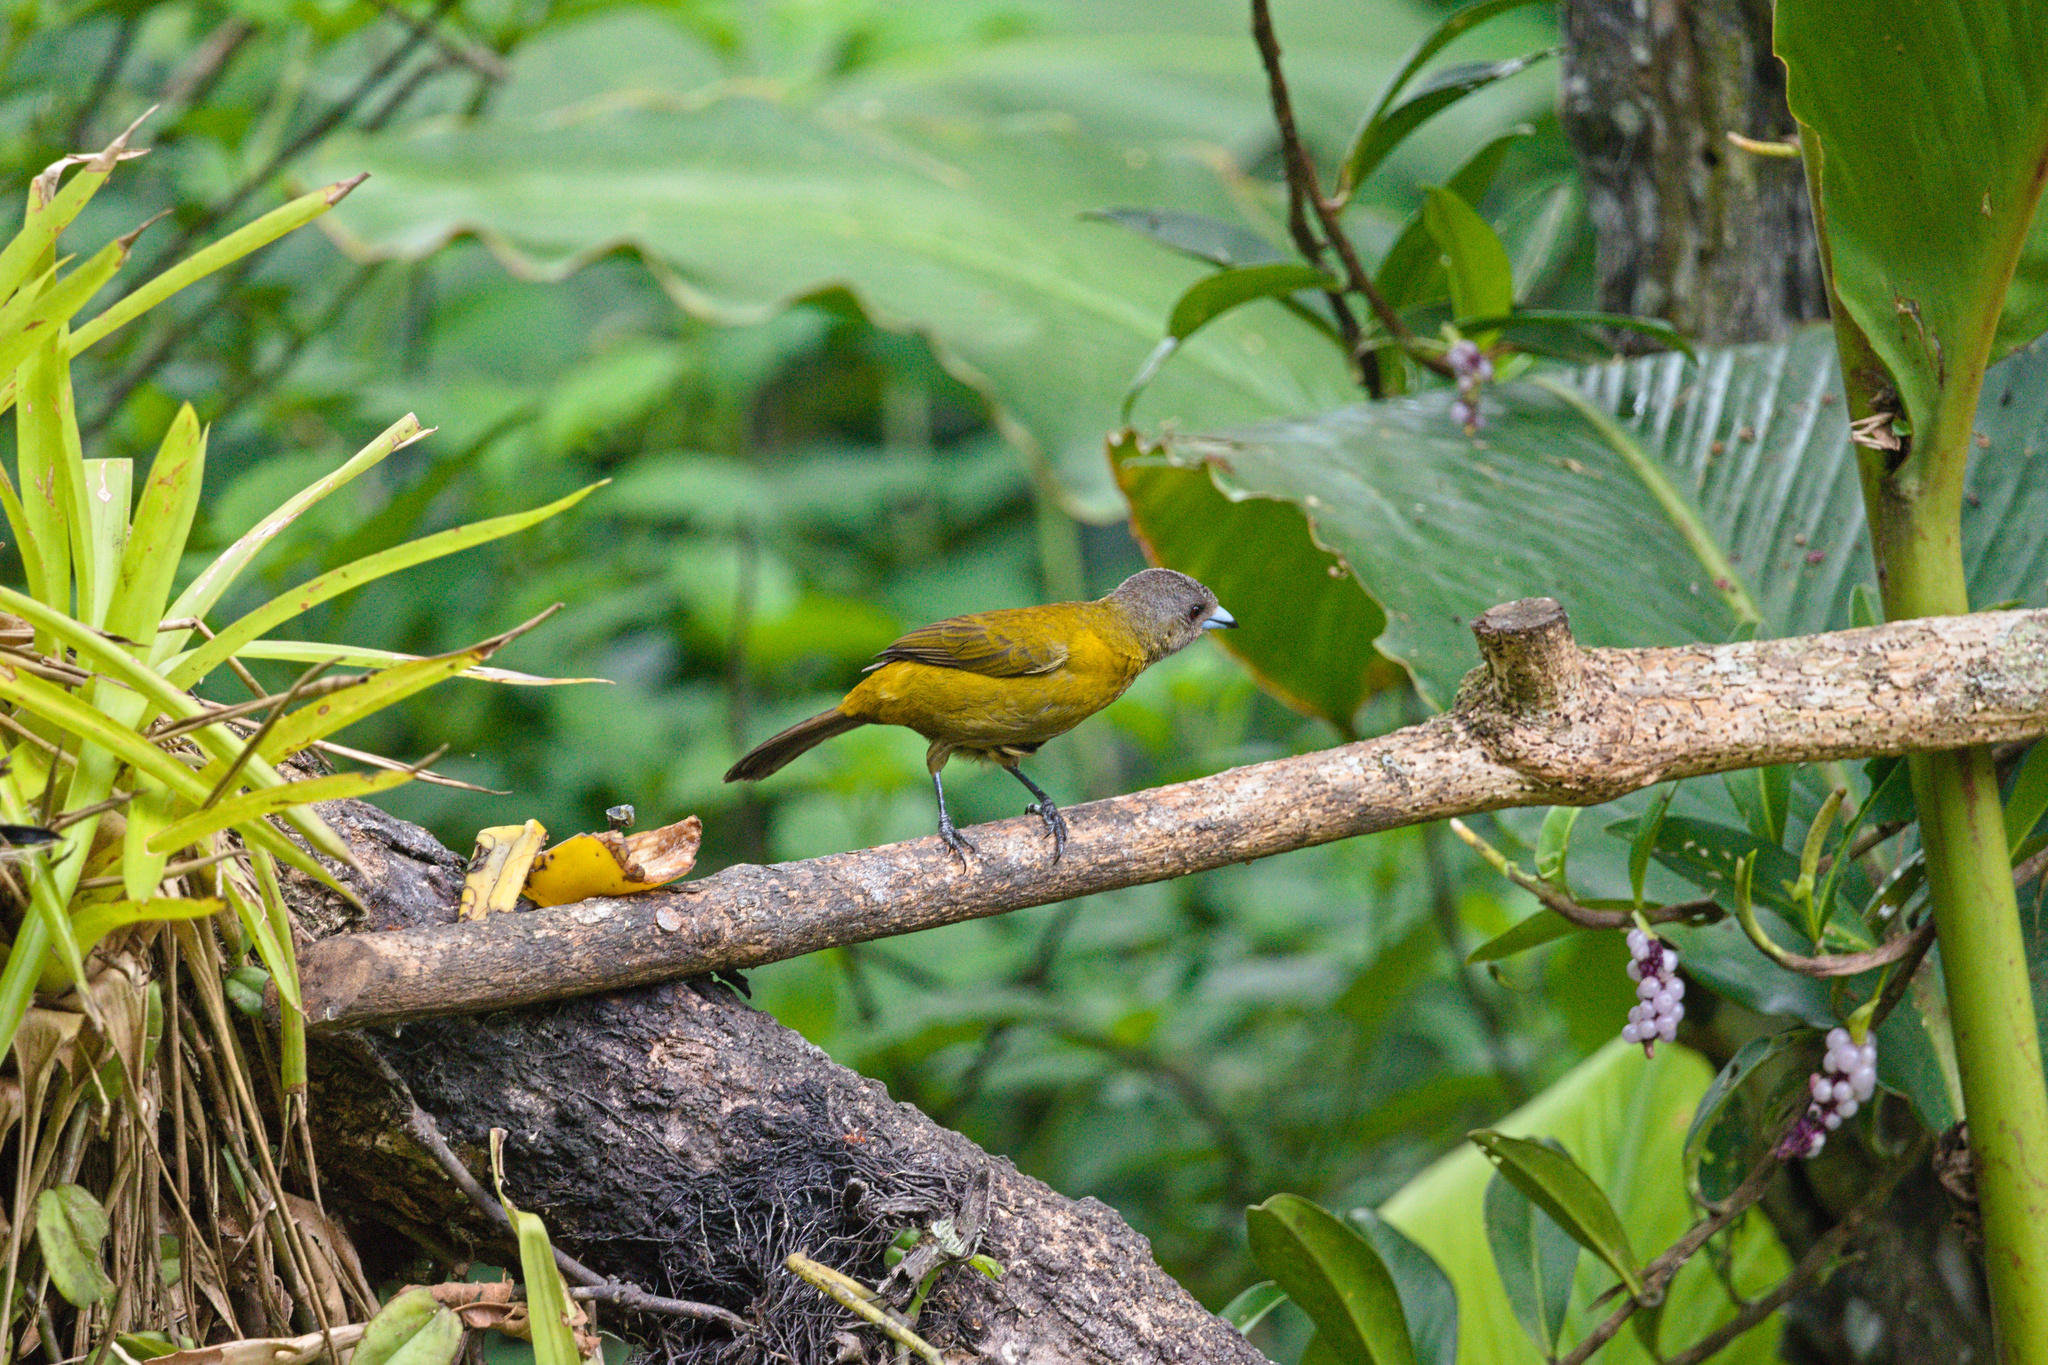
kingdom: Animalia
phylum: Chordata
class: Aves
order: Passeriformes
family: Thraupidae
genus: Ramphocelus
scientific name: Ramphocelus passerinii
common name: Passerini's tanager
